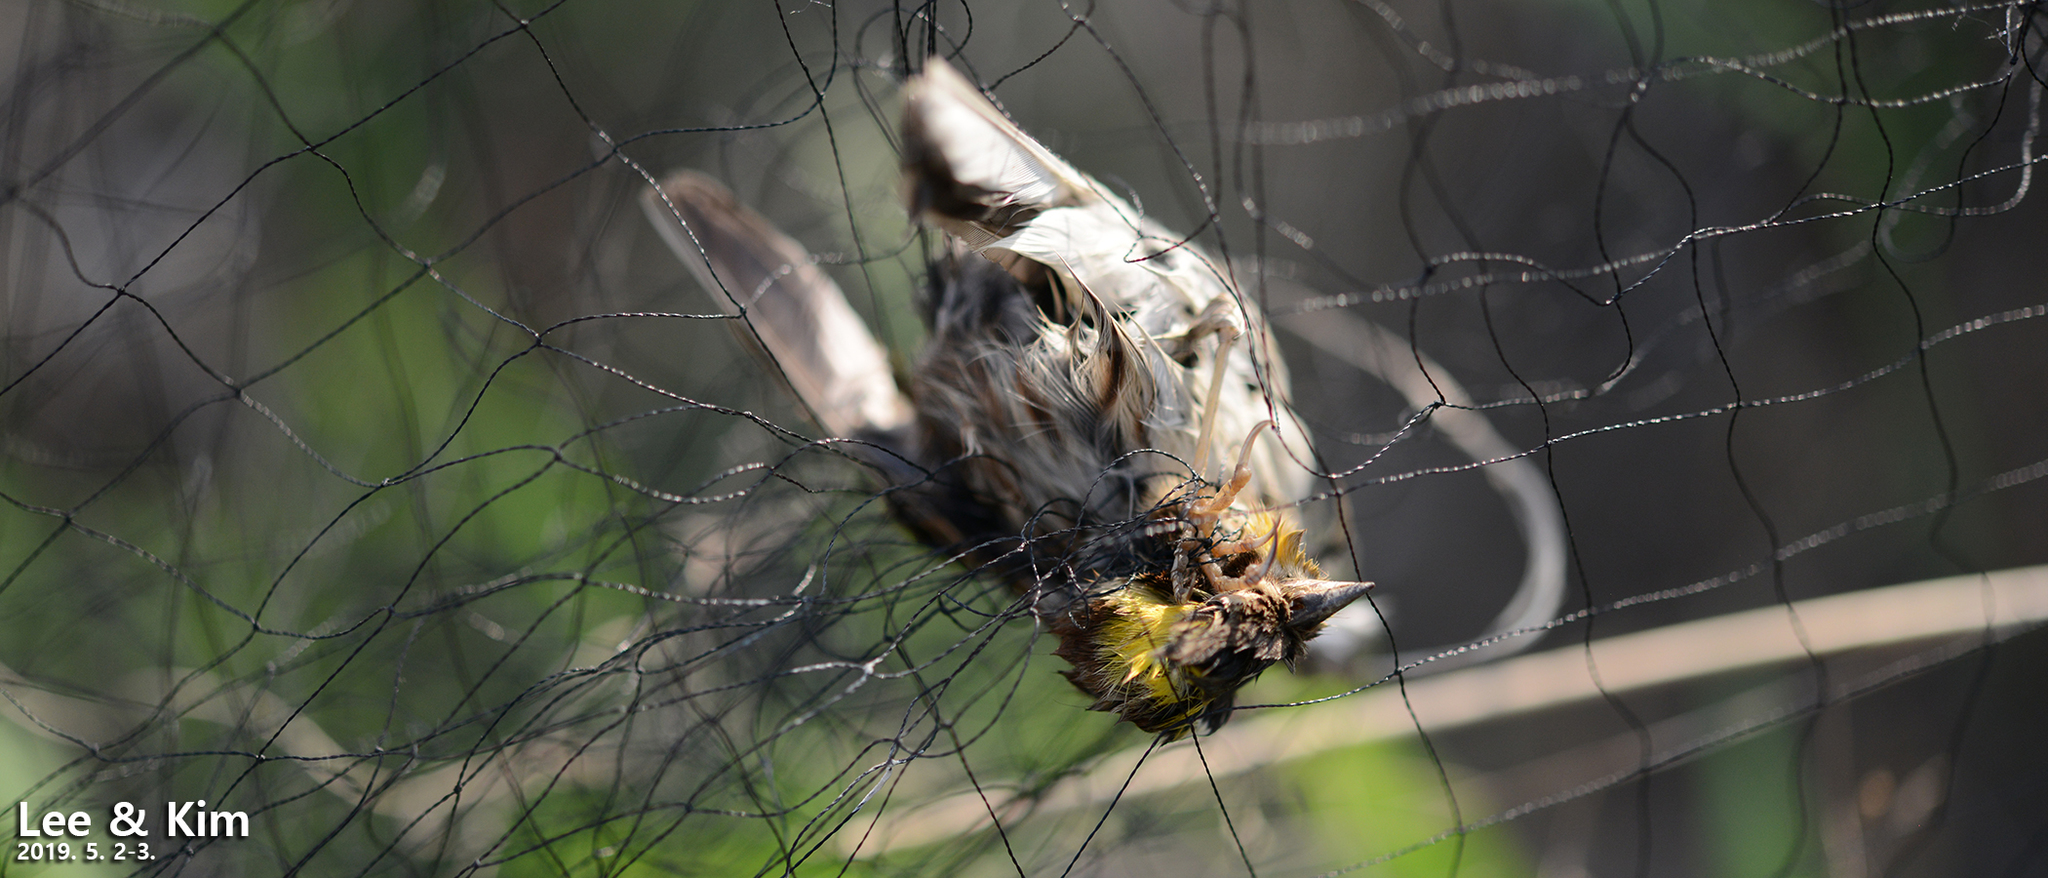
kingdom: Animalia
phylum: Chordata
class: Aves
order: Passeriformes
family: Emberizidae
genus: Emberiza
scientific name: Emberiza elegans
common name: Yellow-throated bunting
